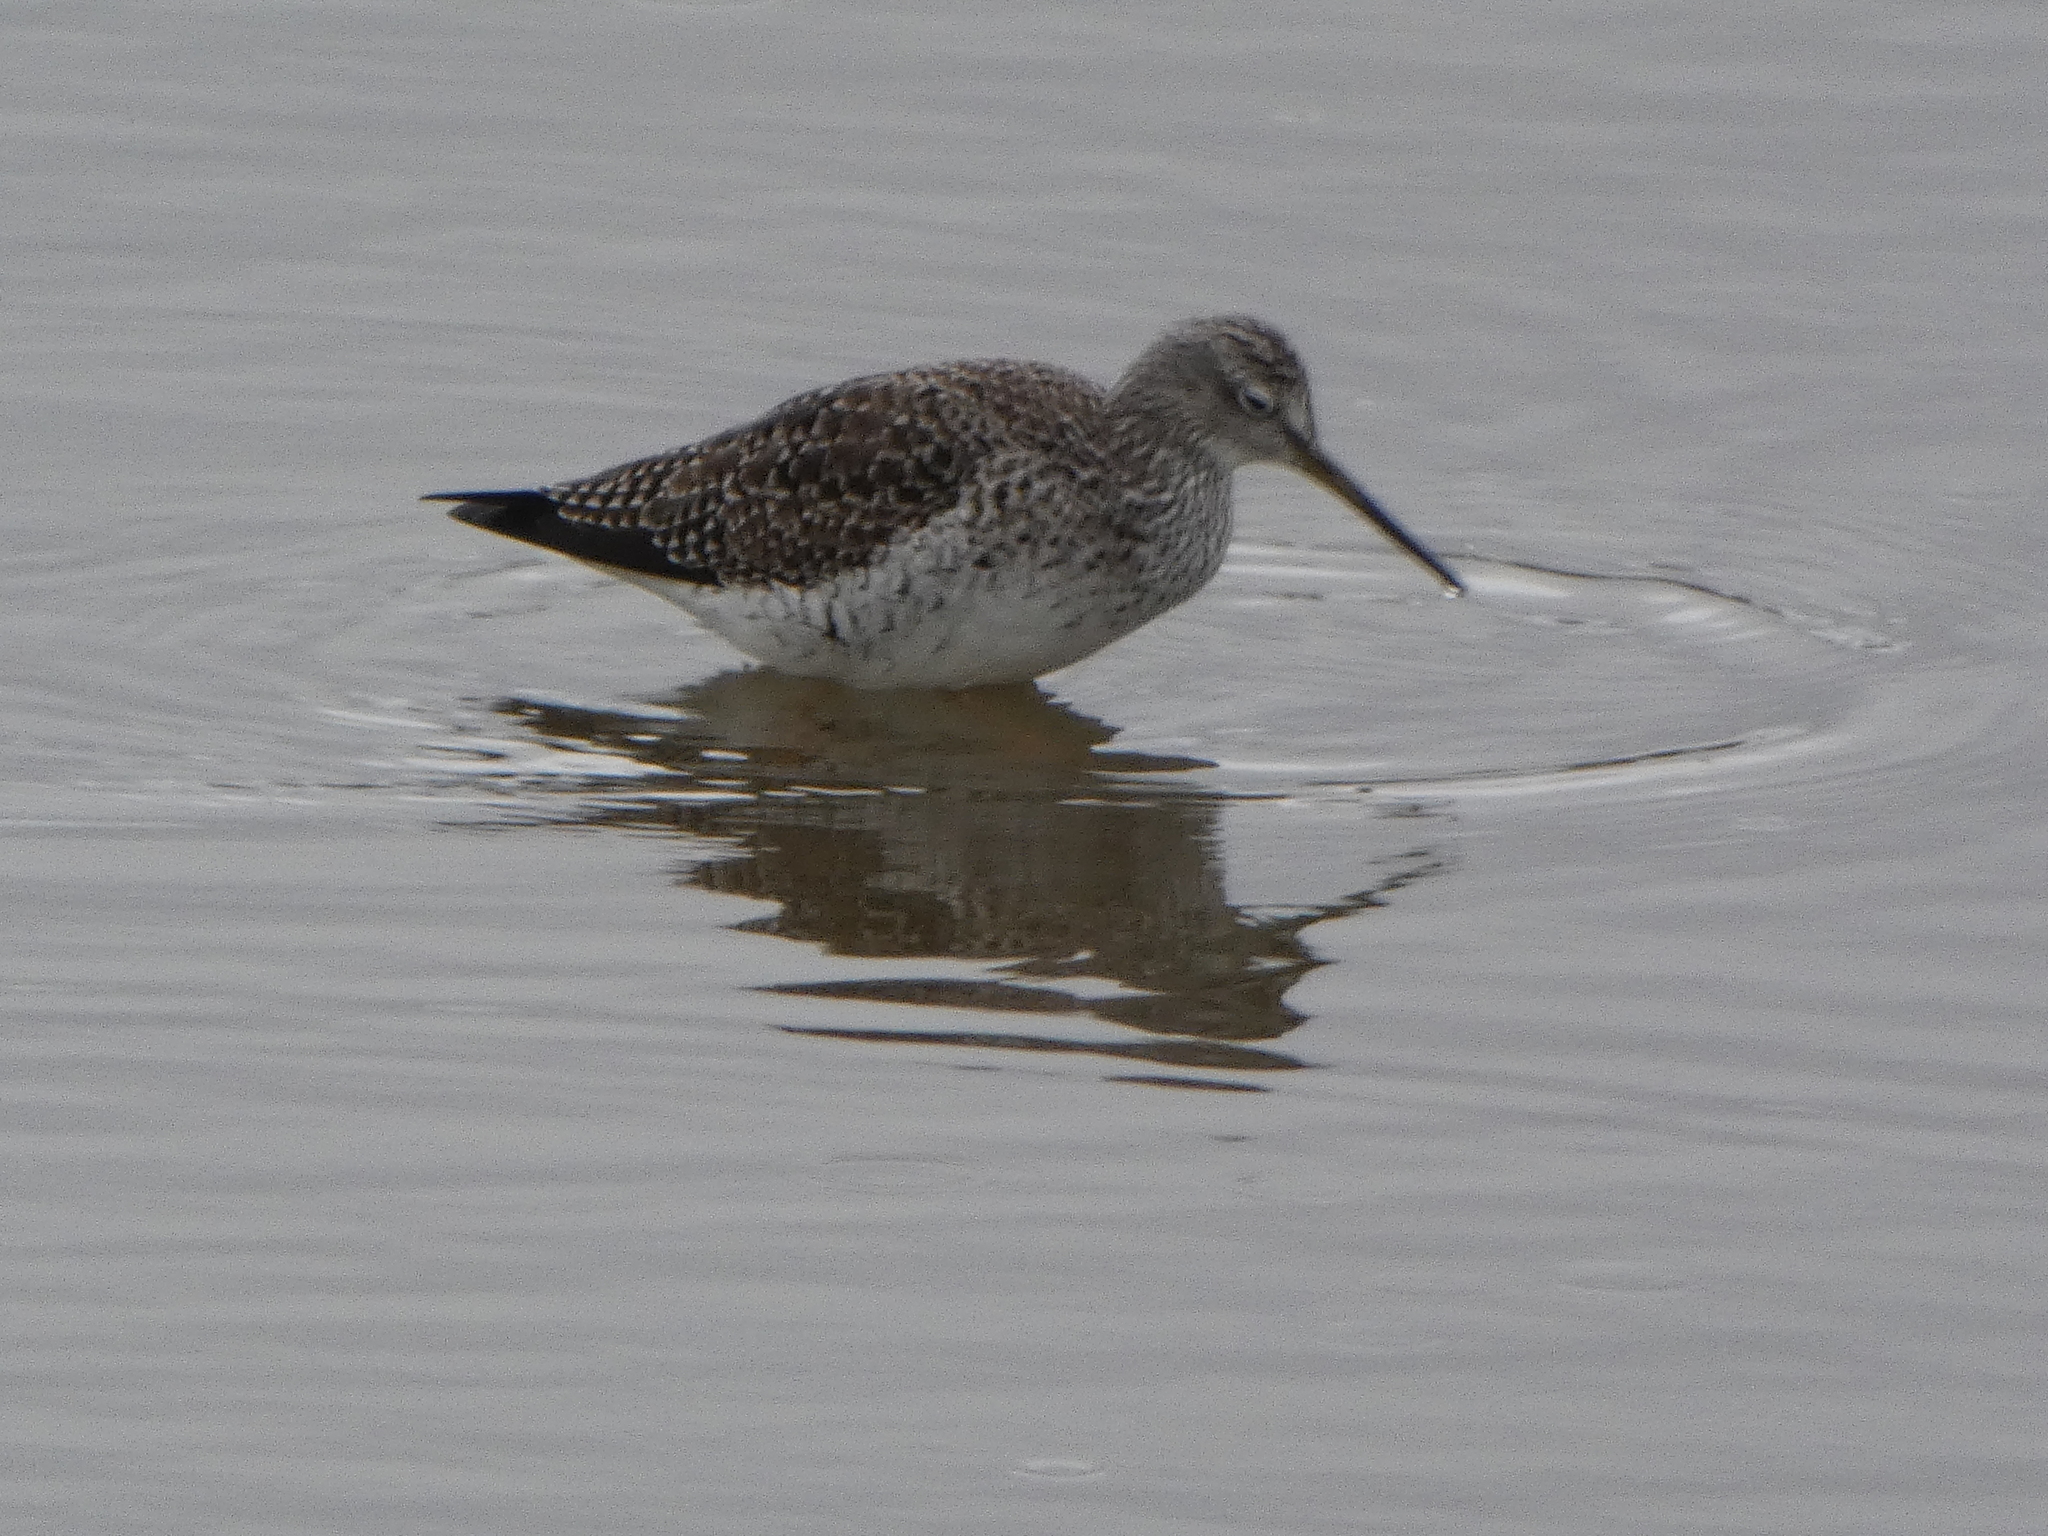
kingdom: Animalia
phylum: Chordata
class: Aves
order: Charadriiformes
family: Scolopacidae
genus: Tringa
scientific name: Tringa melanoleuca
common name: Greater yellowlegs
